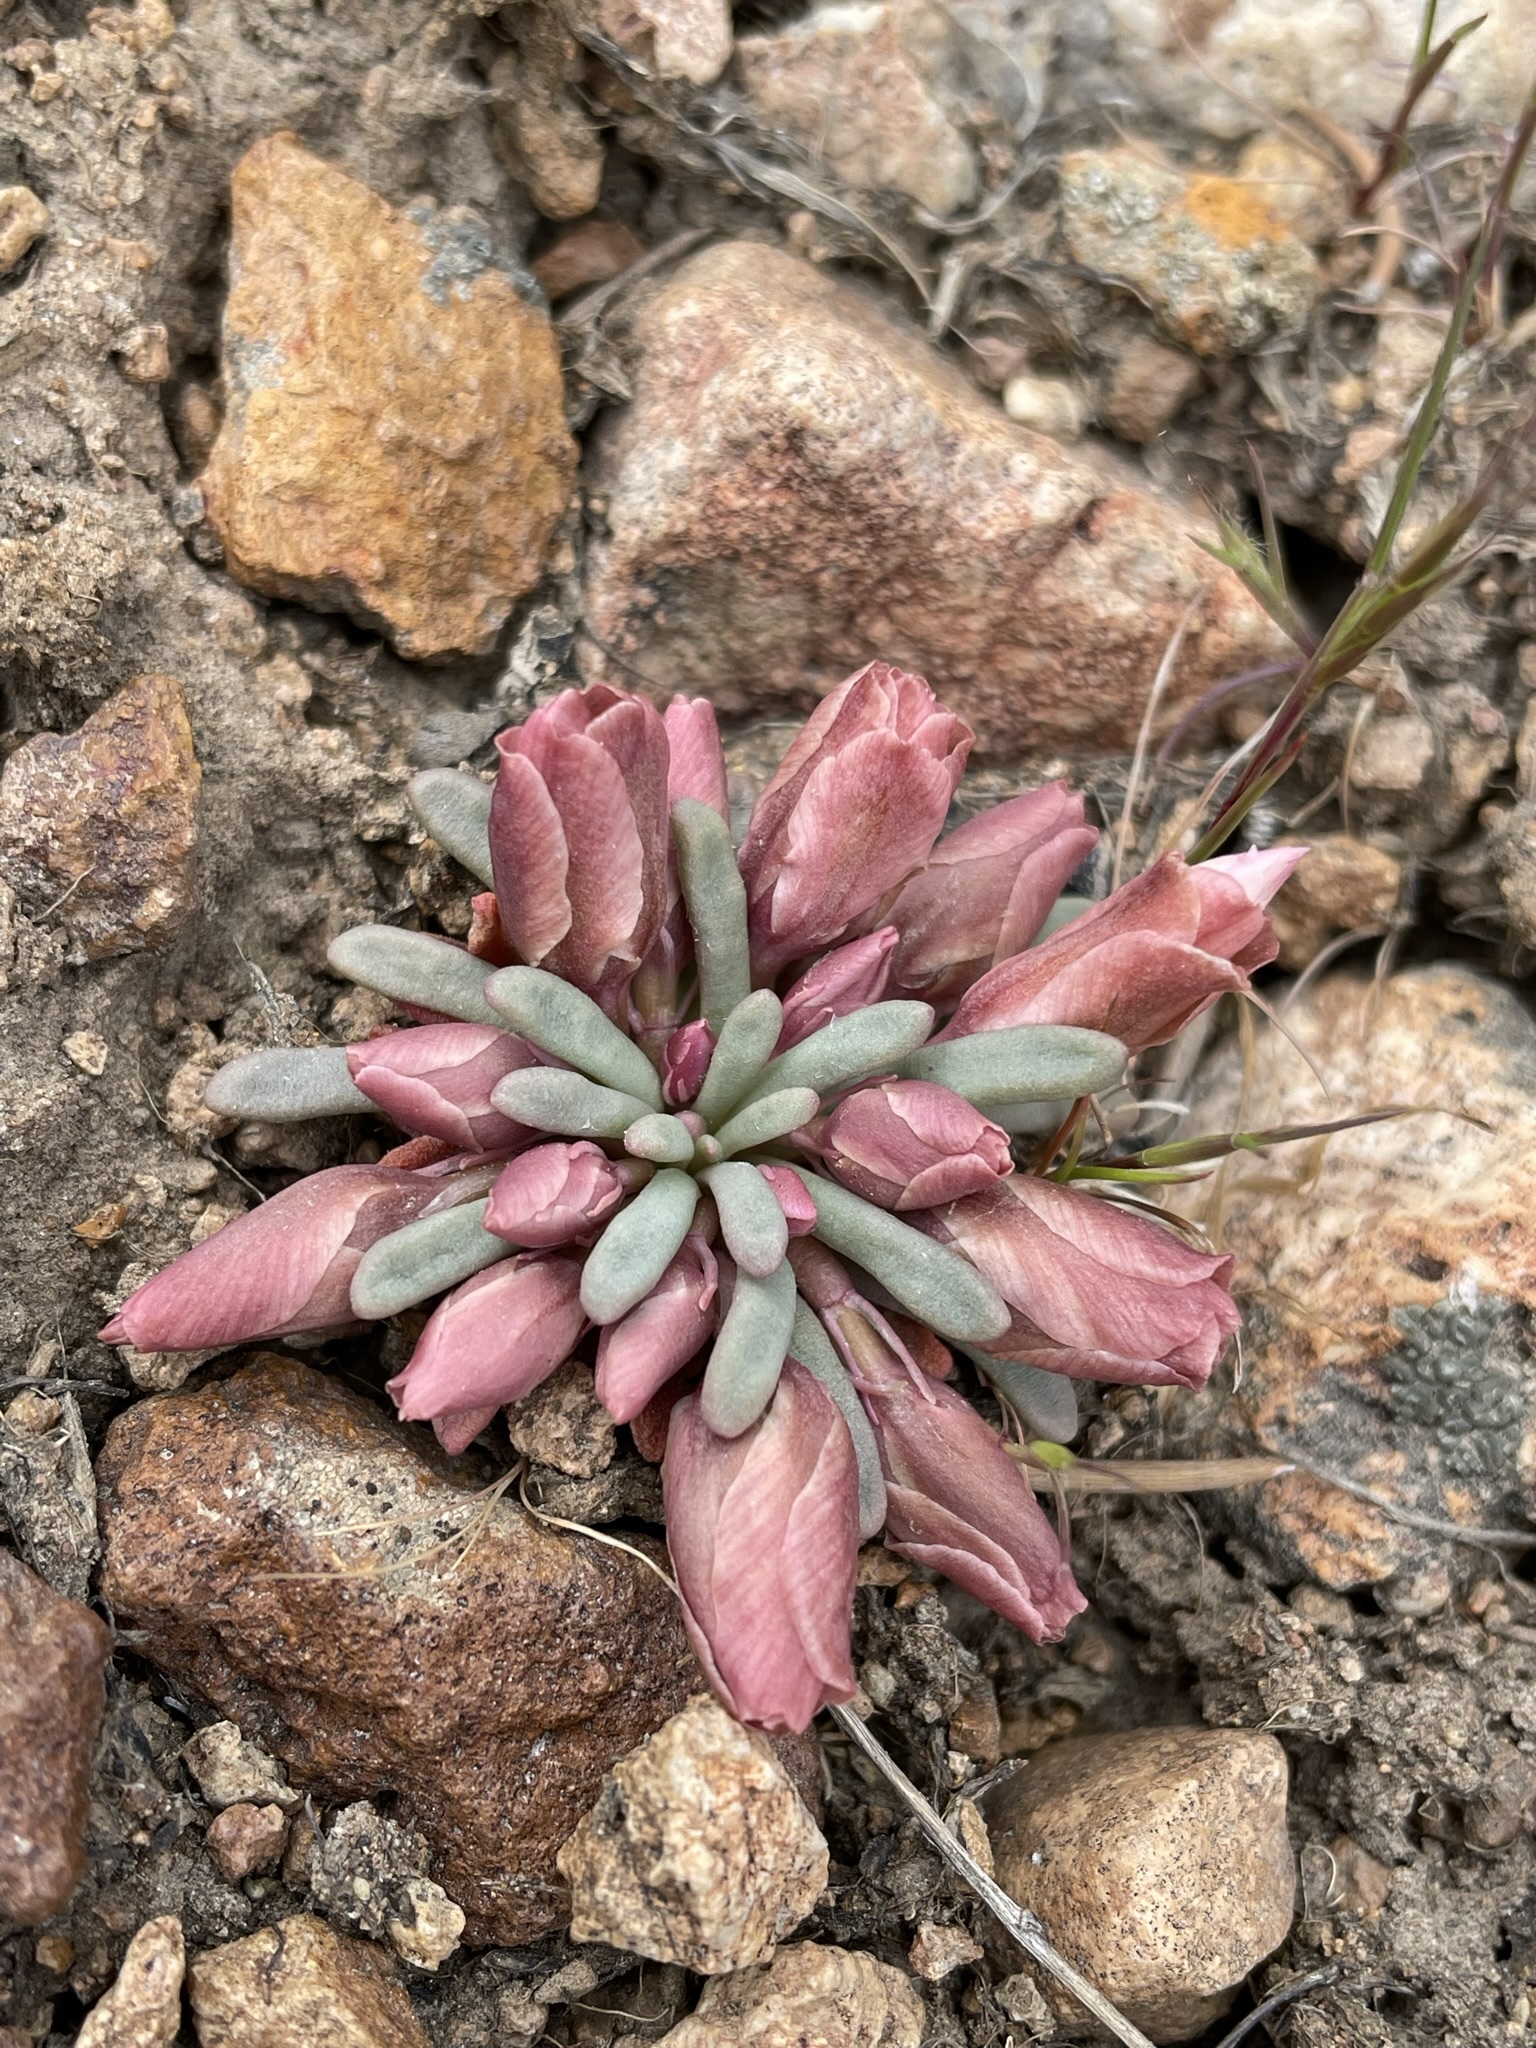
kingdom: Plantae
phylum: Tracheophyta
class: Magnoliopsida
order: Caryophyllales
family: Montiaceae
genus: Lewisia
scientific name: Lewisia rediviva
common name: Bitter-root
